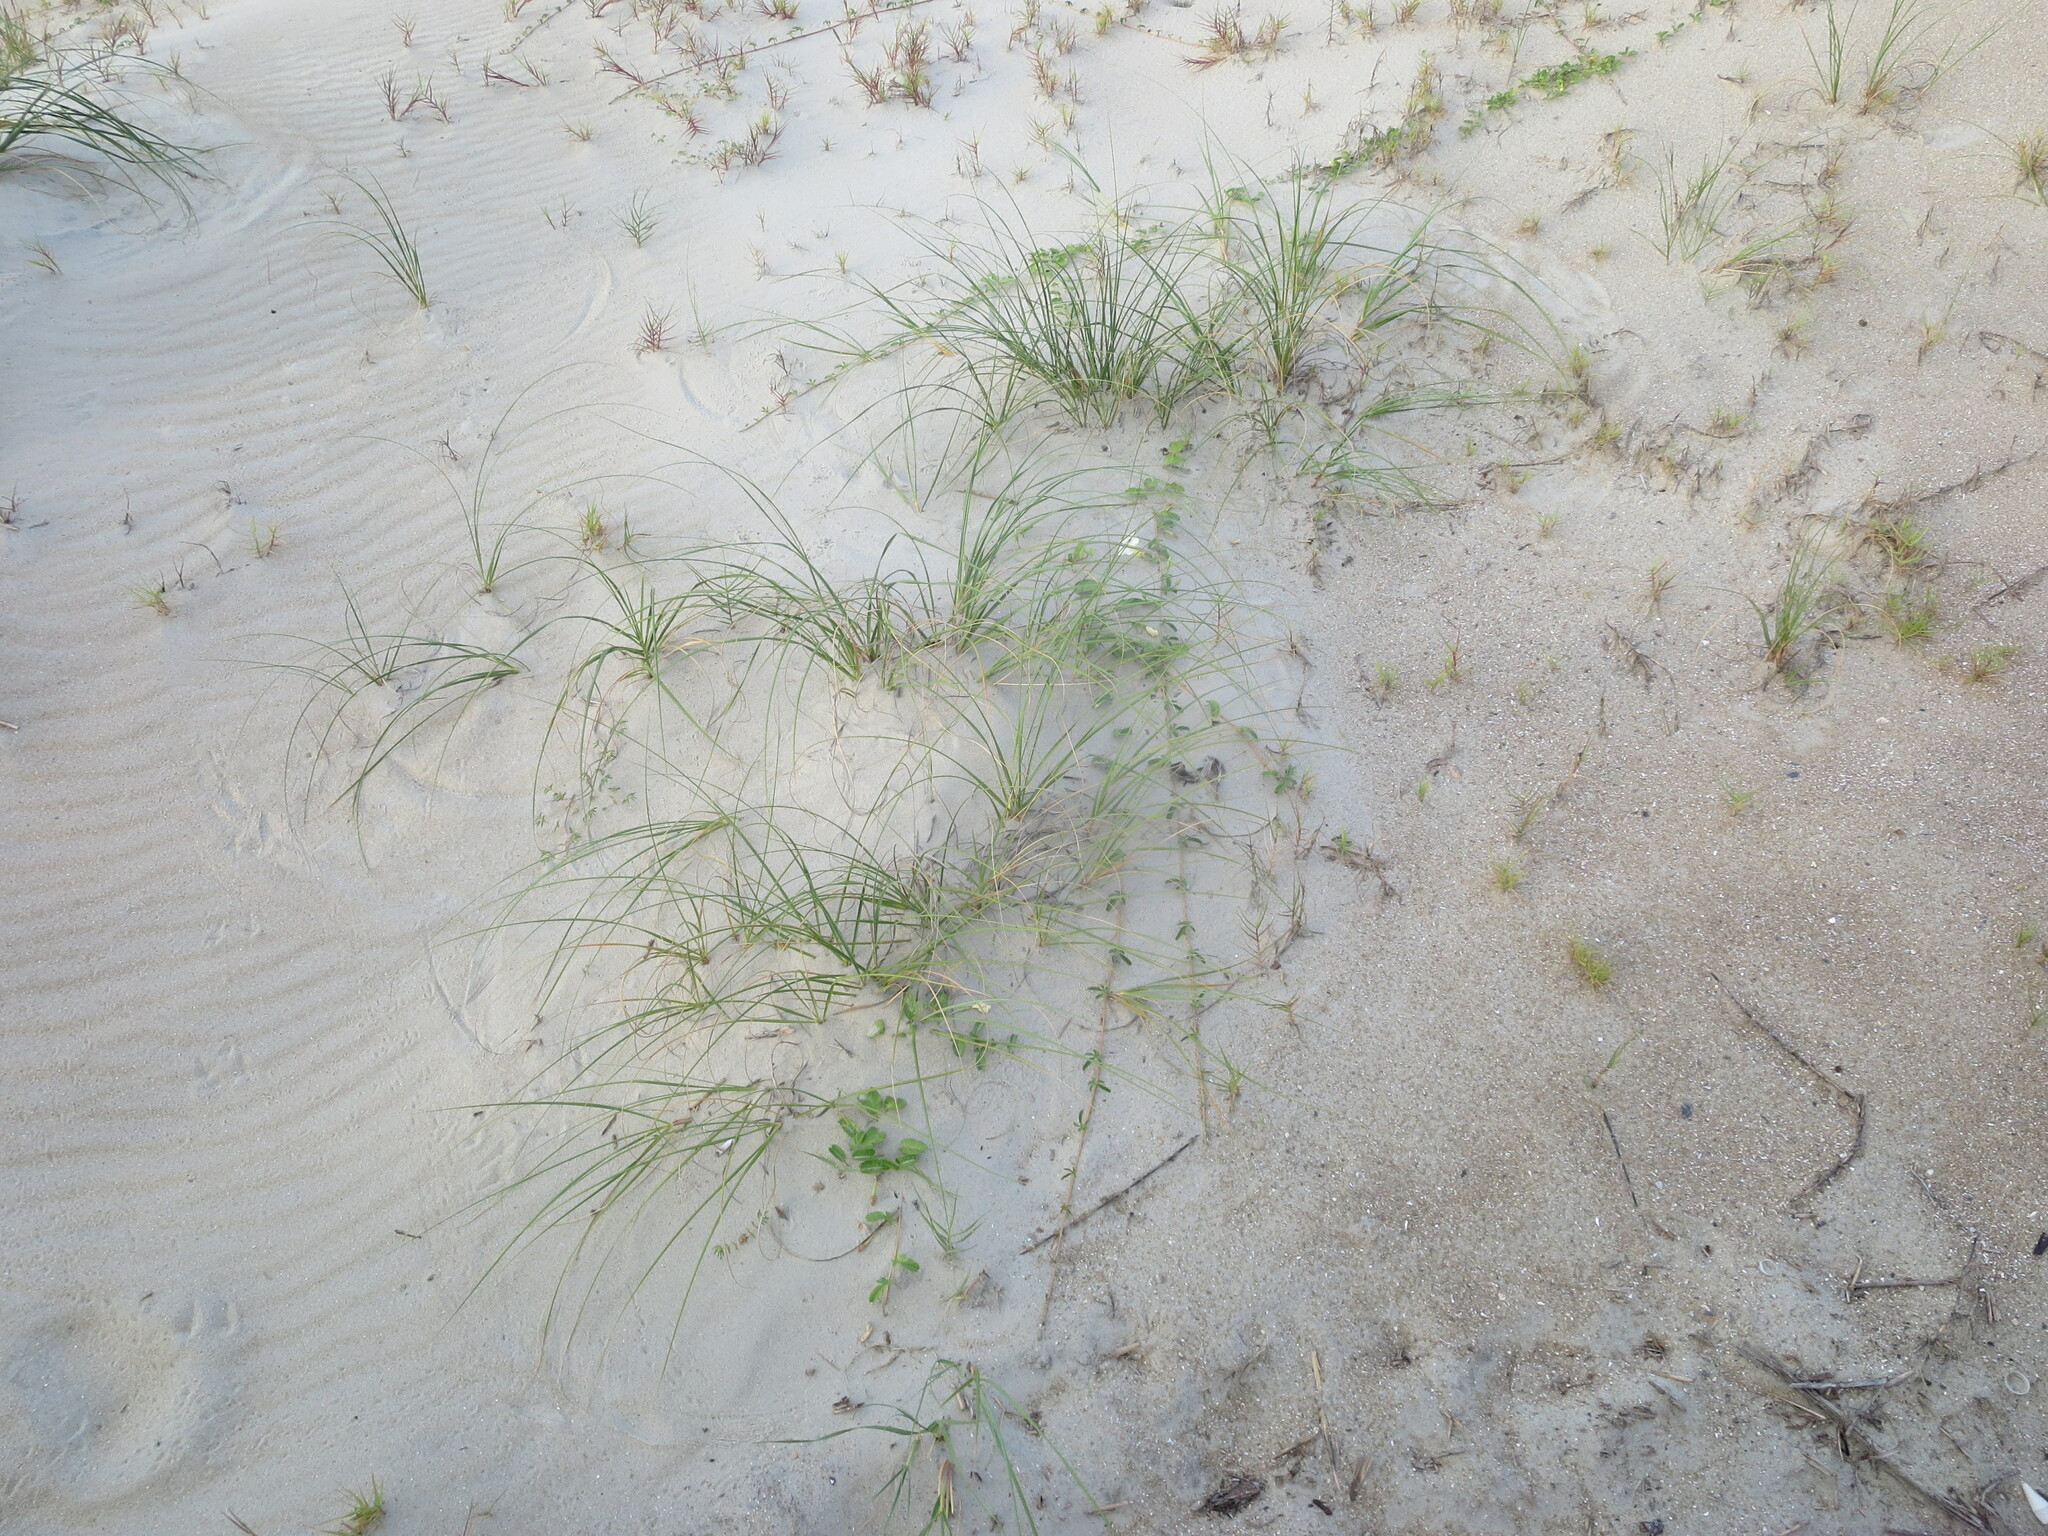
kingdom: Plantae
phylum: Tracheophyta
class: Magnoliopsida
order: Solanales
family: Convolvulaceae
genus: Ipomoea
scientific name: Ipomoea imperati
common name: Fiddle-leaf morning-glory
